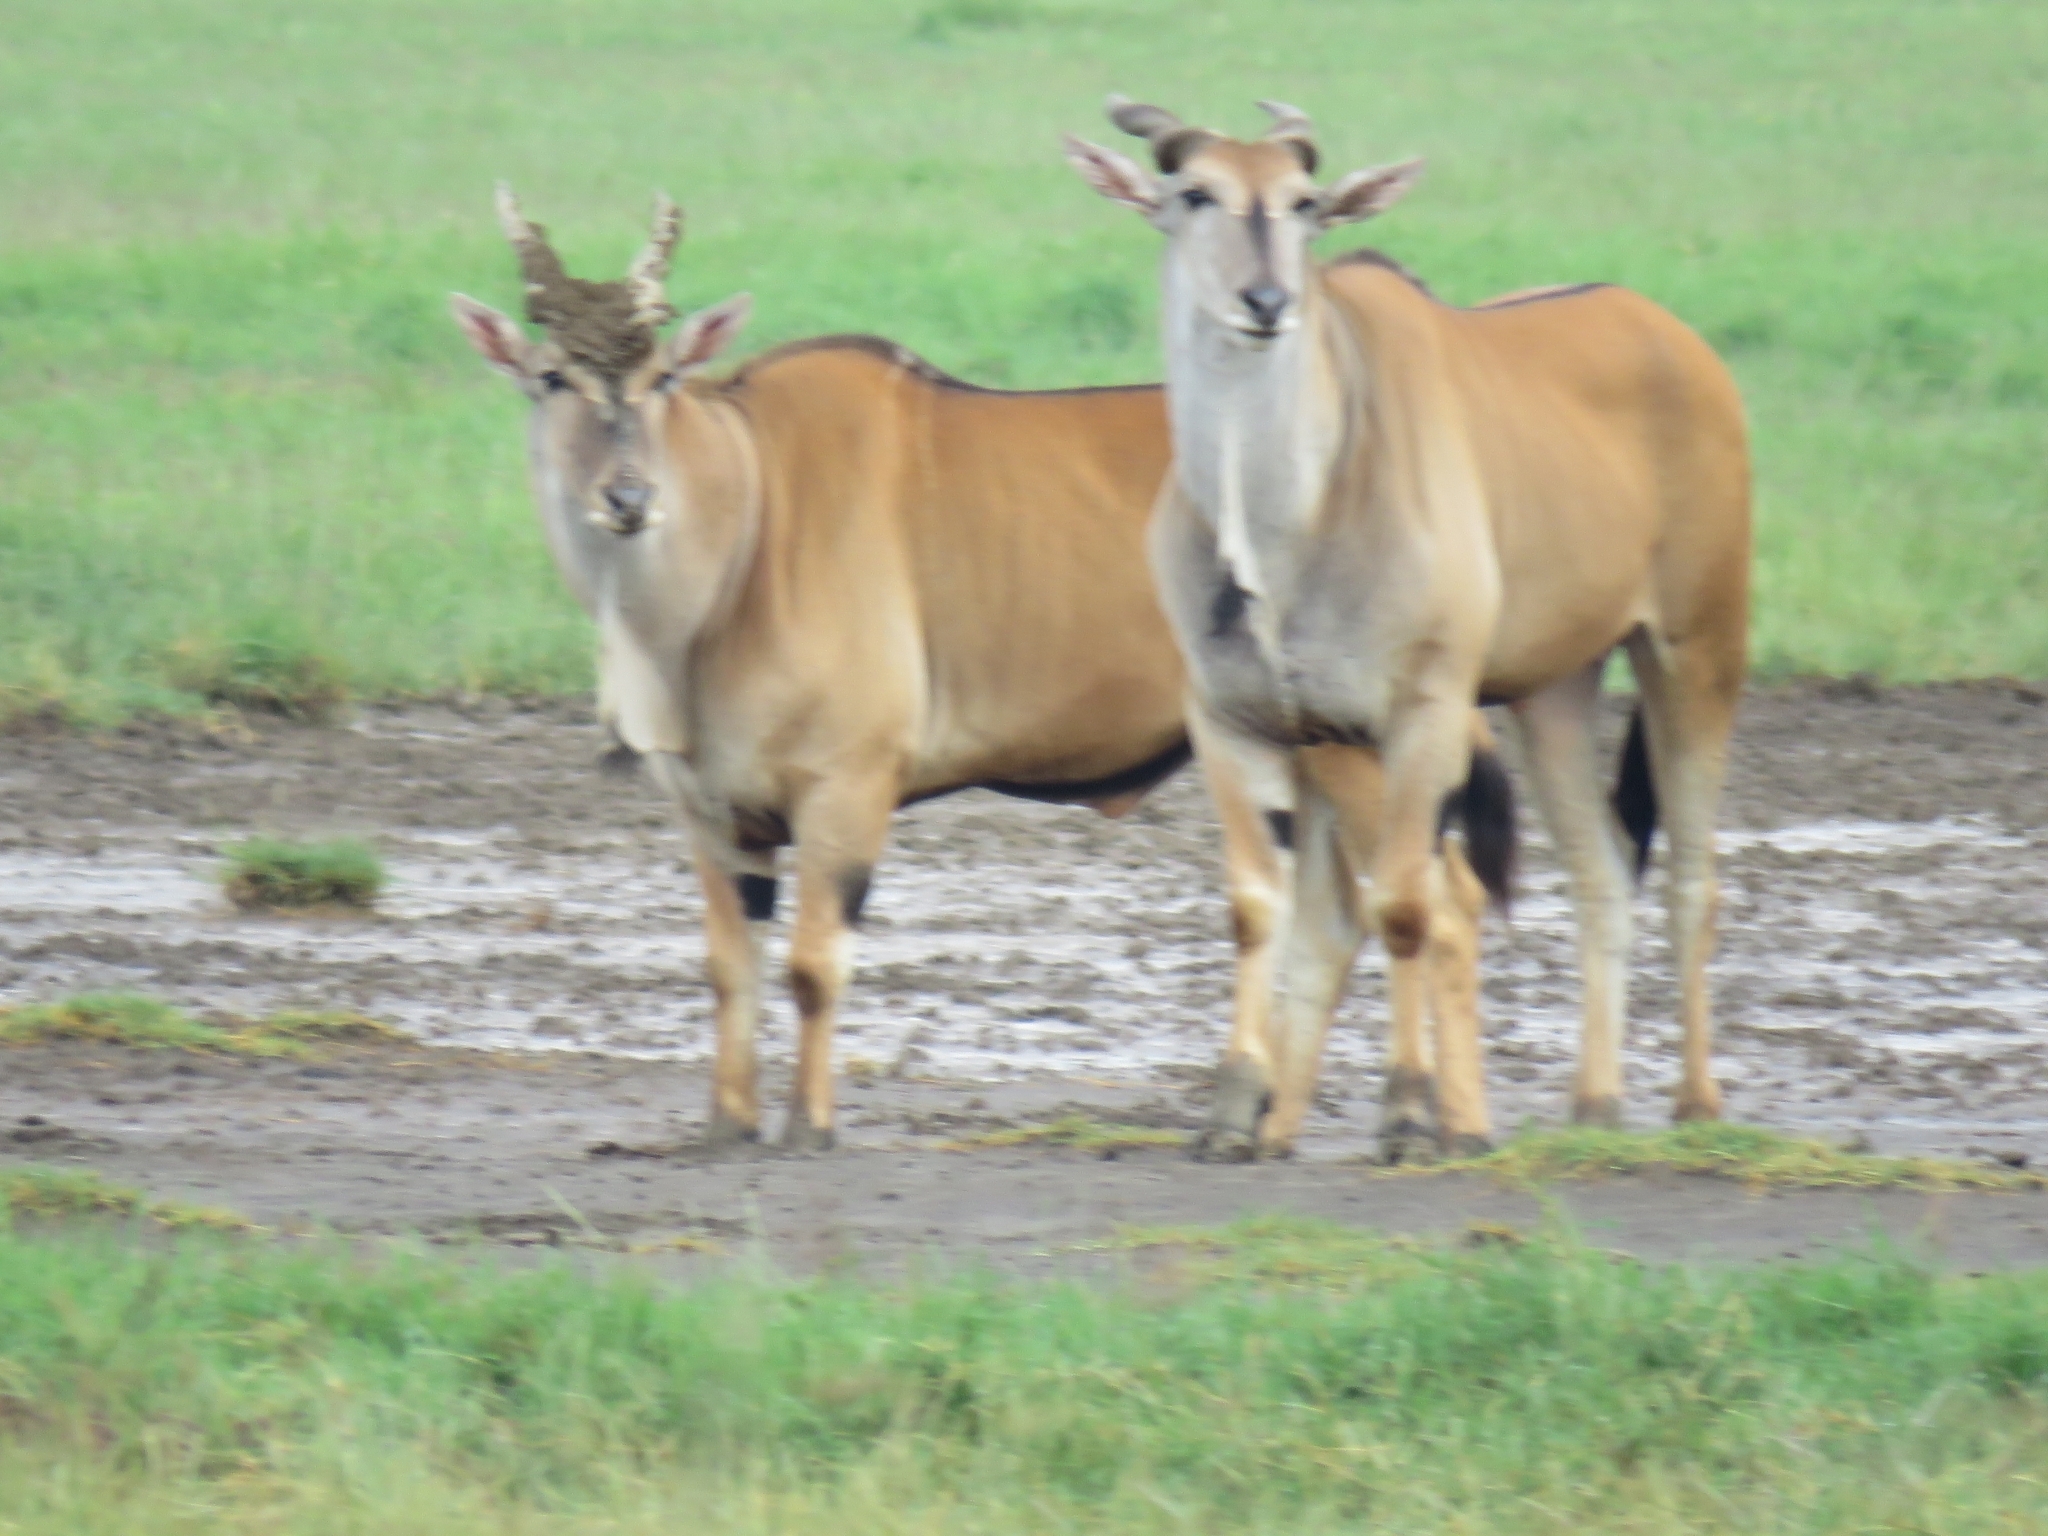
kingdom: Animalia
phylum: Chordata
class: Mammalia
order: Artiodactyla
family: Bovidae
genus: Taurotragus
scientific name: Taurotragus oryx
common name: Common eland
